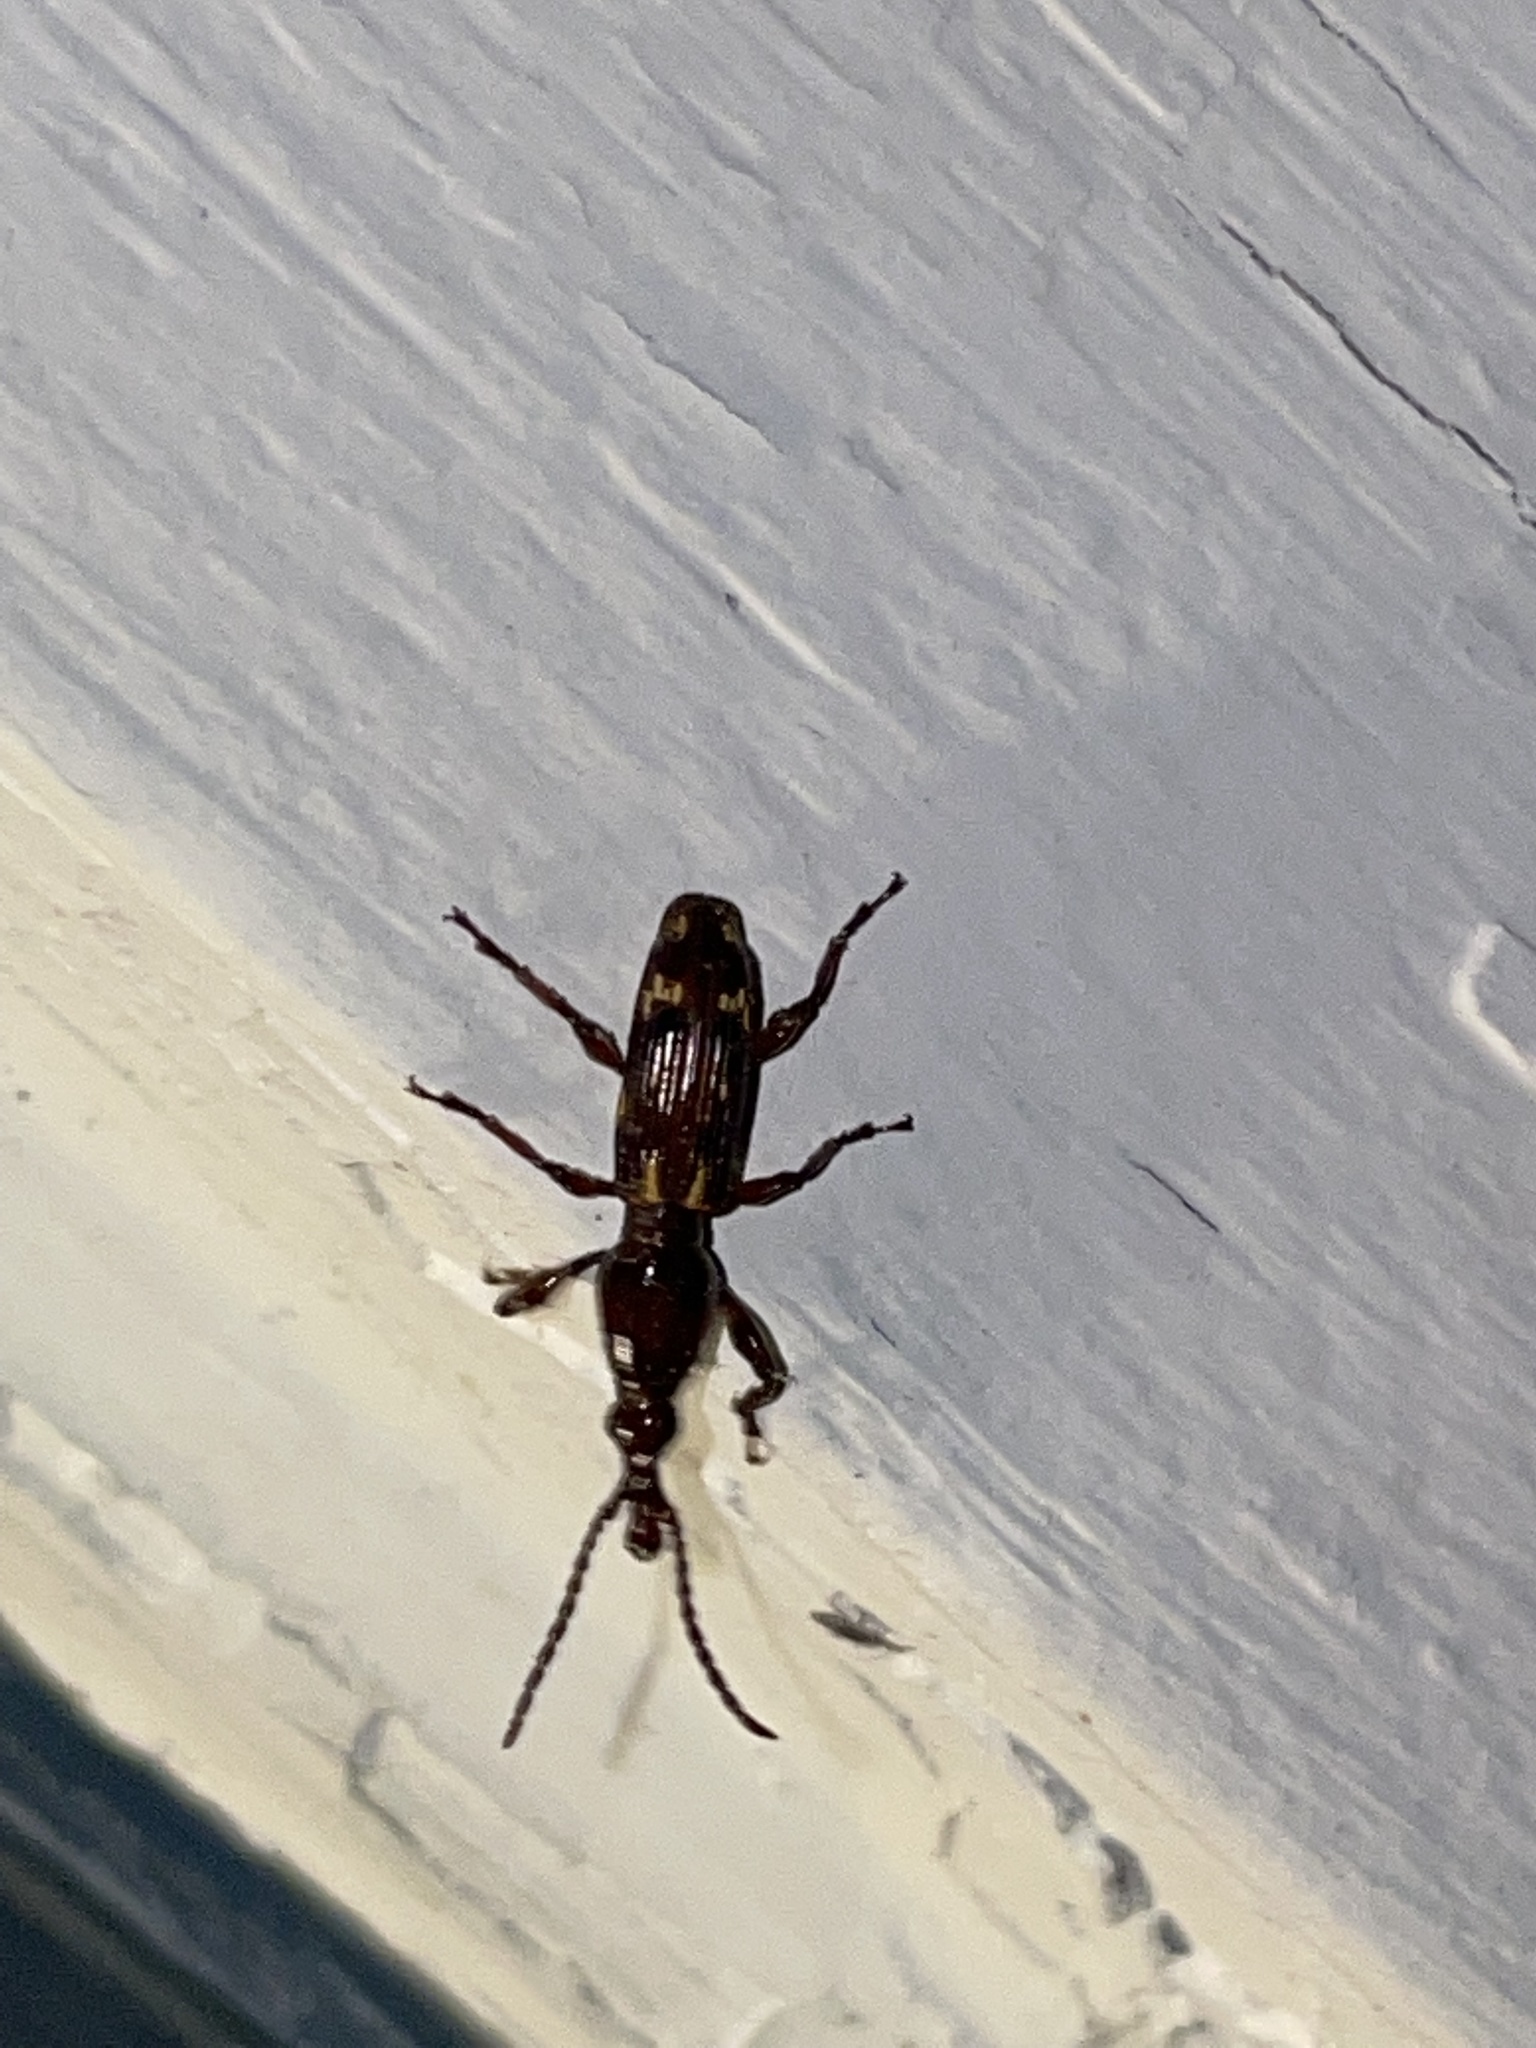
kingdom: Animalia
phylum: Arthropoda
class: Insecta
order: Coleoptera
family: Brentidae
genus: Arrenodes
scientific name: Arrenodes minutus
